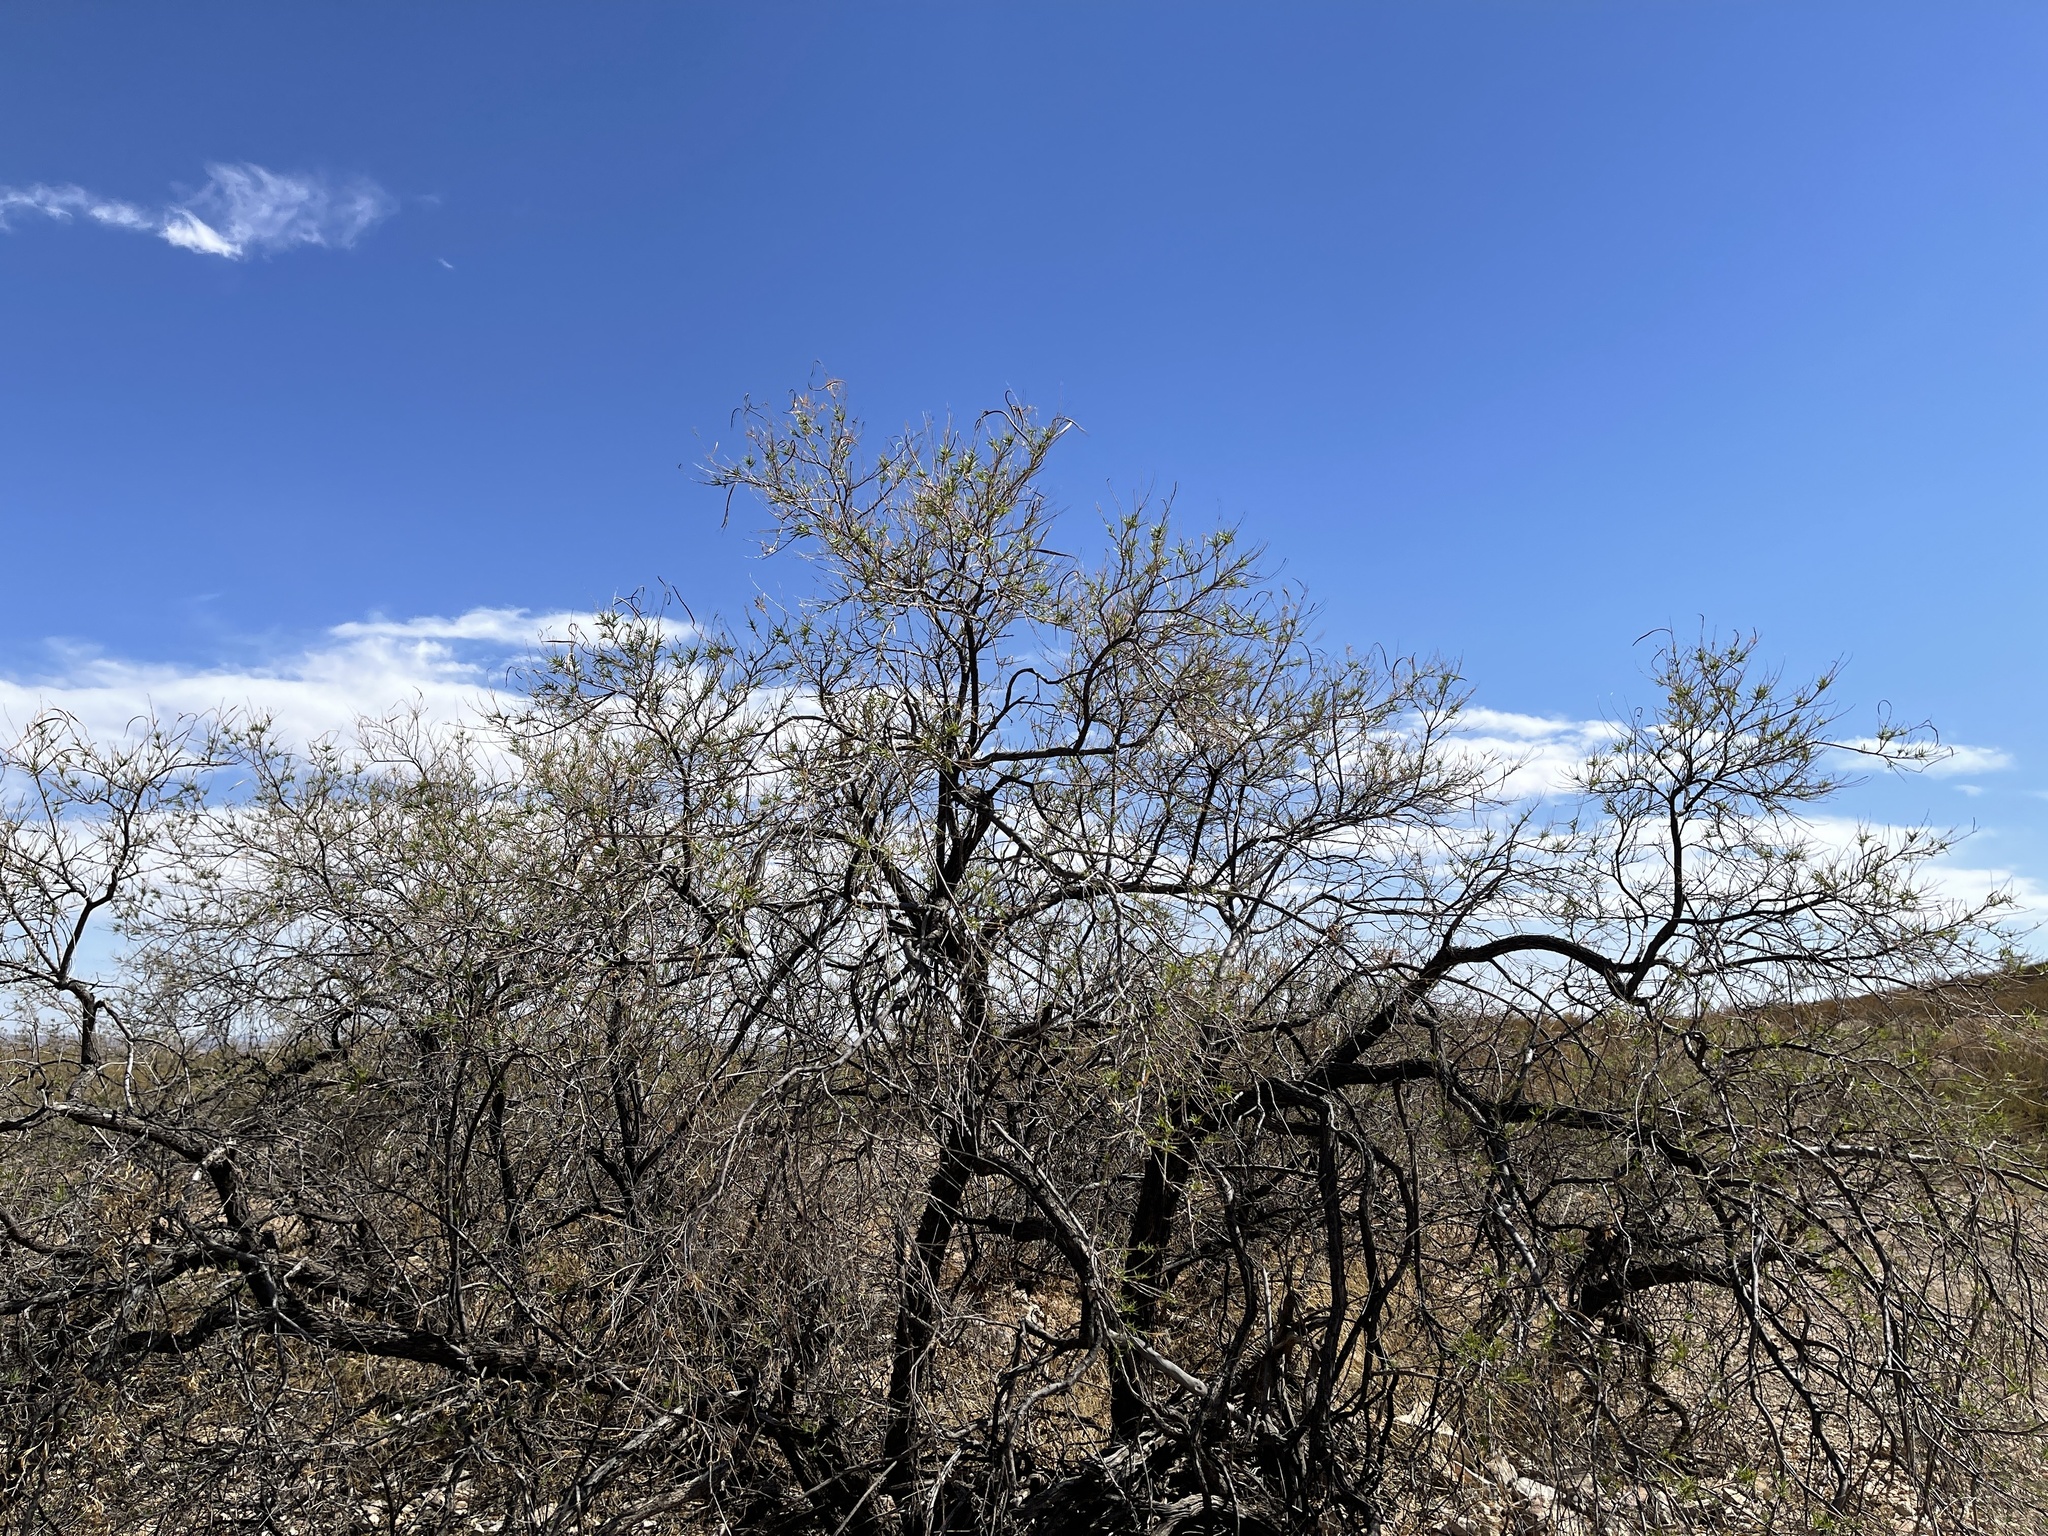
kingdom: Plantae
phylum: Tracheophyta
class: Magnoliopsida
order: Lamiales
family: Bignoniaceae
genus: Chilopsis
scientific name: Chilopsis linearis
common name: Desert-willow
